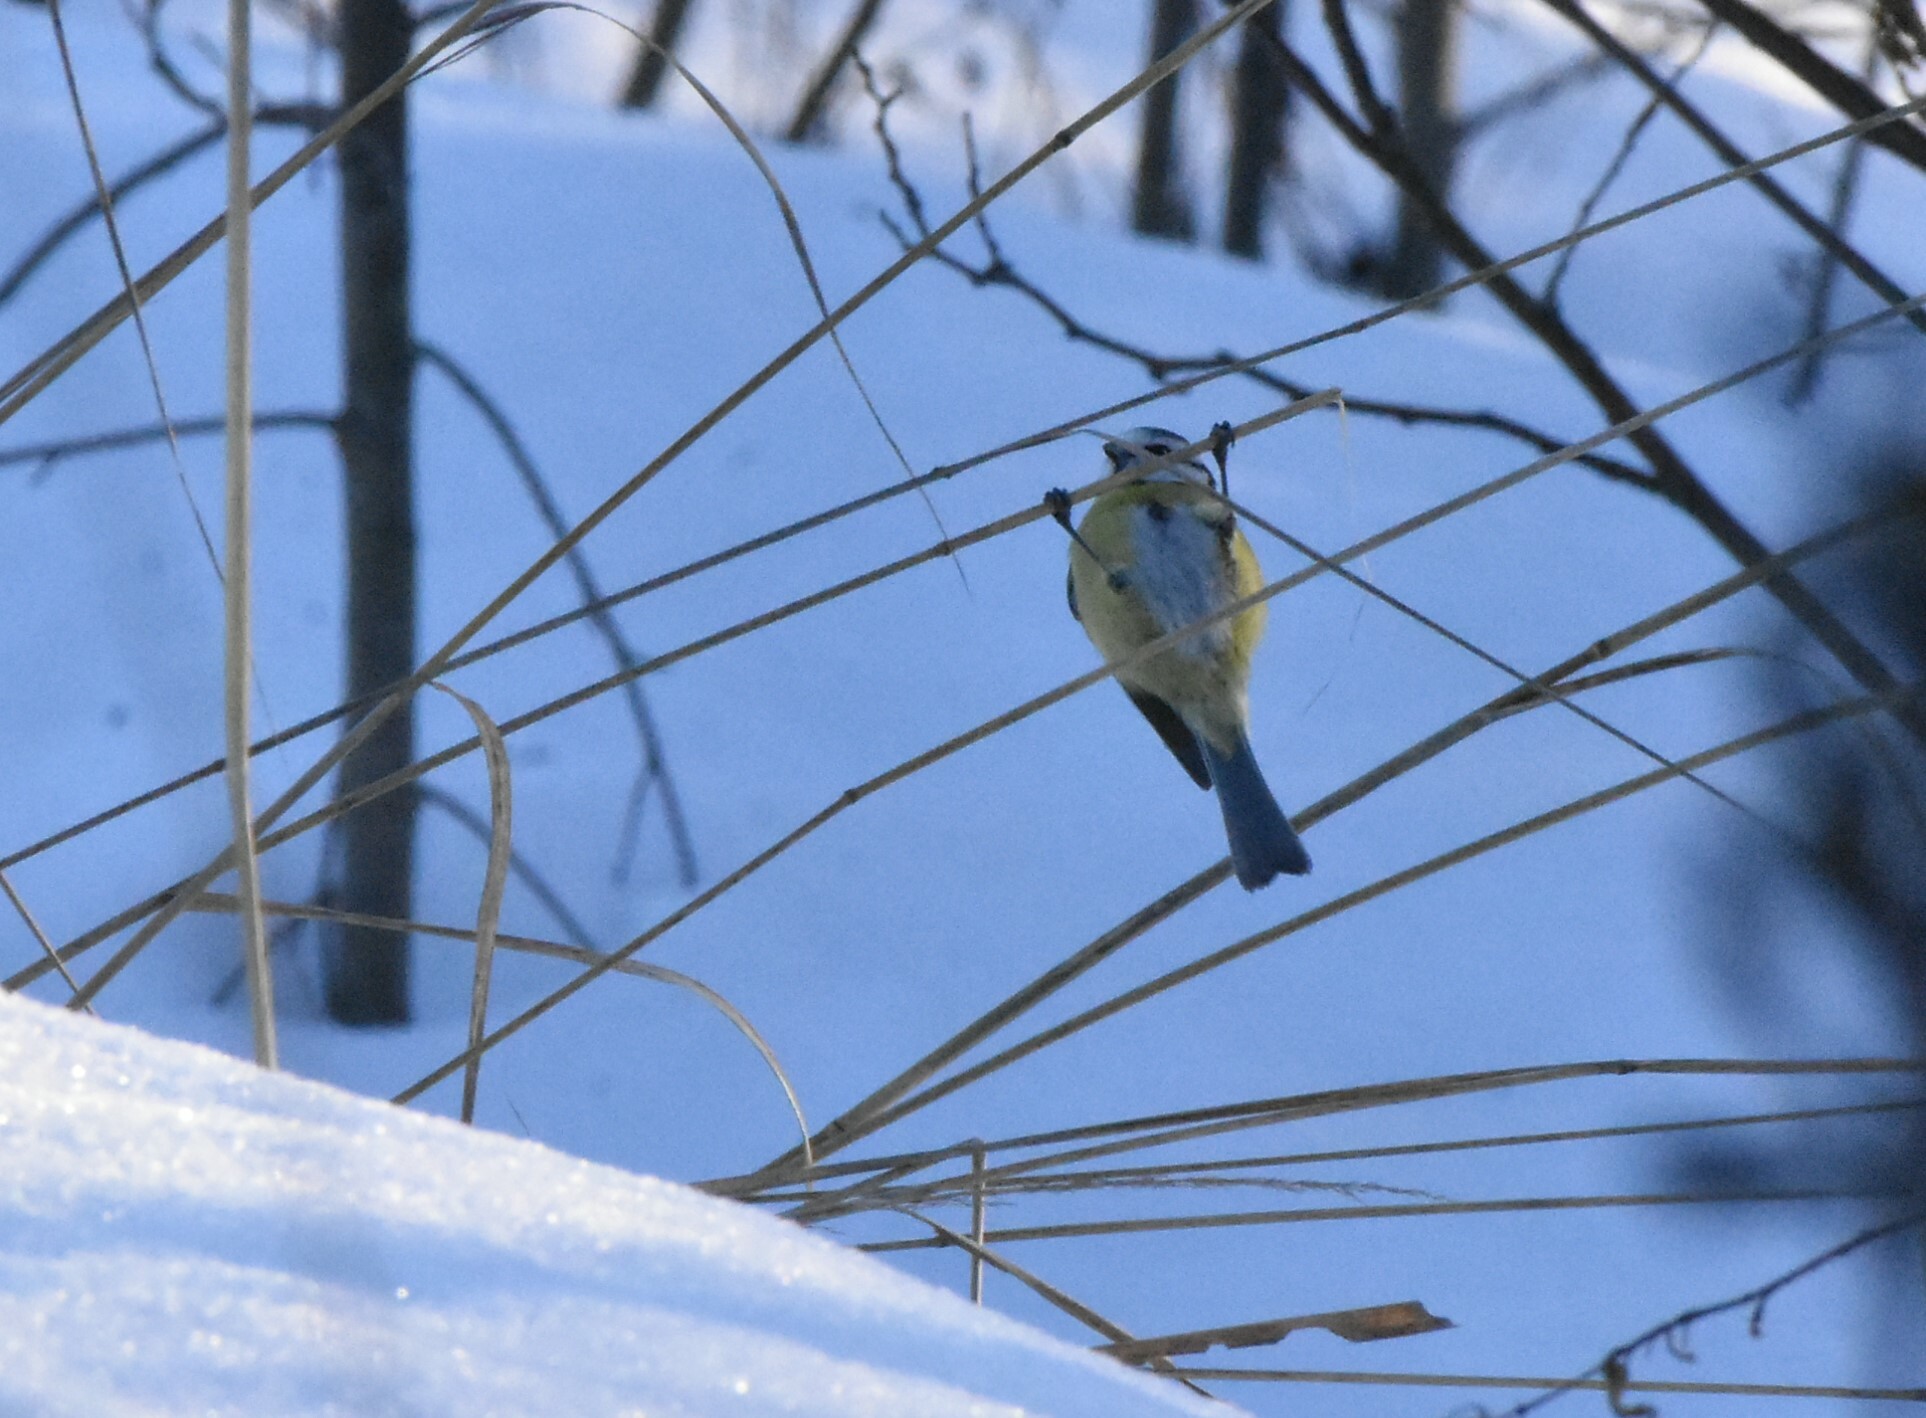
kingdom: Animalia
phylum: Chordata
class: Aves
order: Passeriformes
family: Paridae
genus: Cyanistes
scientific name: Cyanistes caeruleus
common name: Eurasian blue tit
